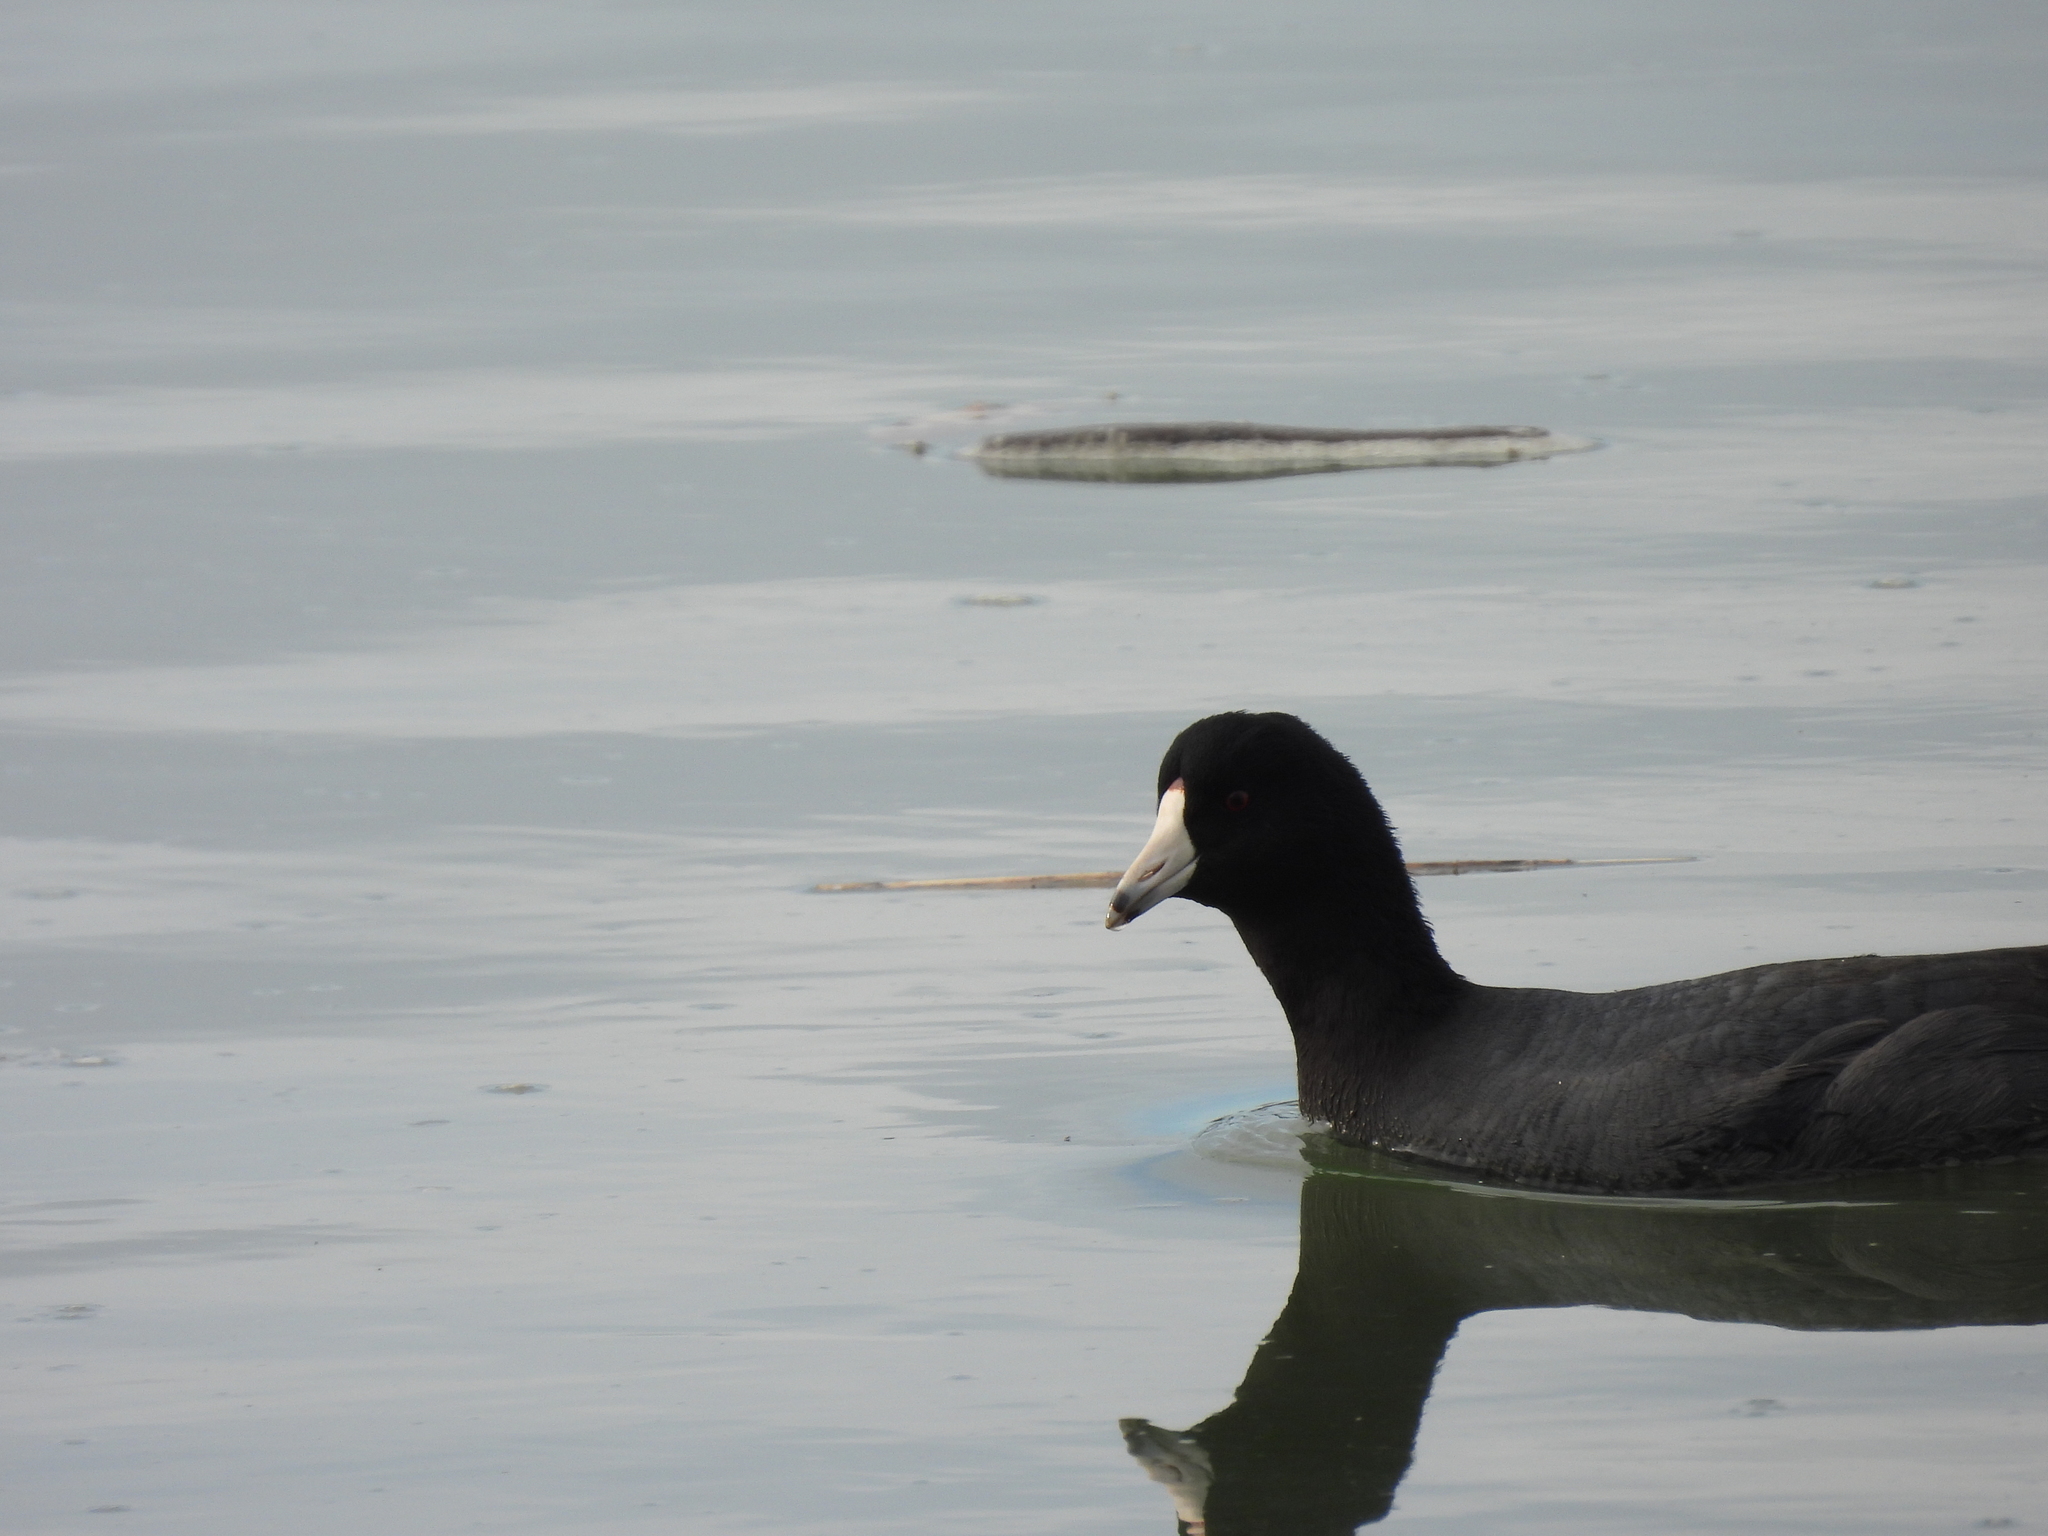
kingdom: Animalia
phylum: Chordata
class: Aves
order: Gruiformes
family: Rallidae
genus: Fulica
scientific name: Fulica americana
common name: American coot
